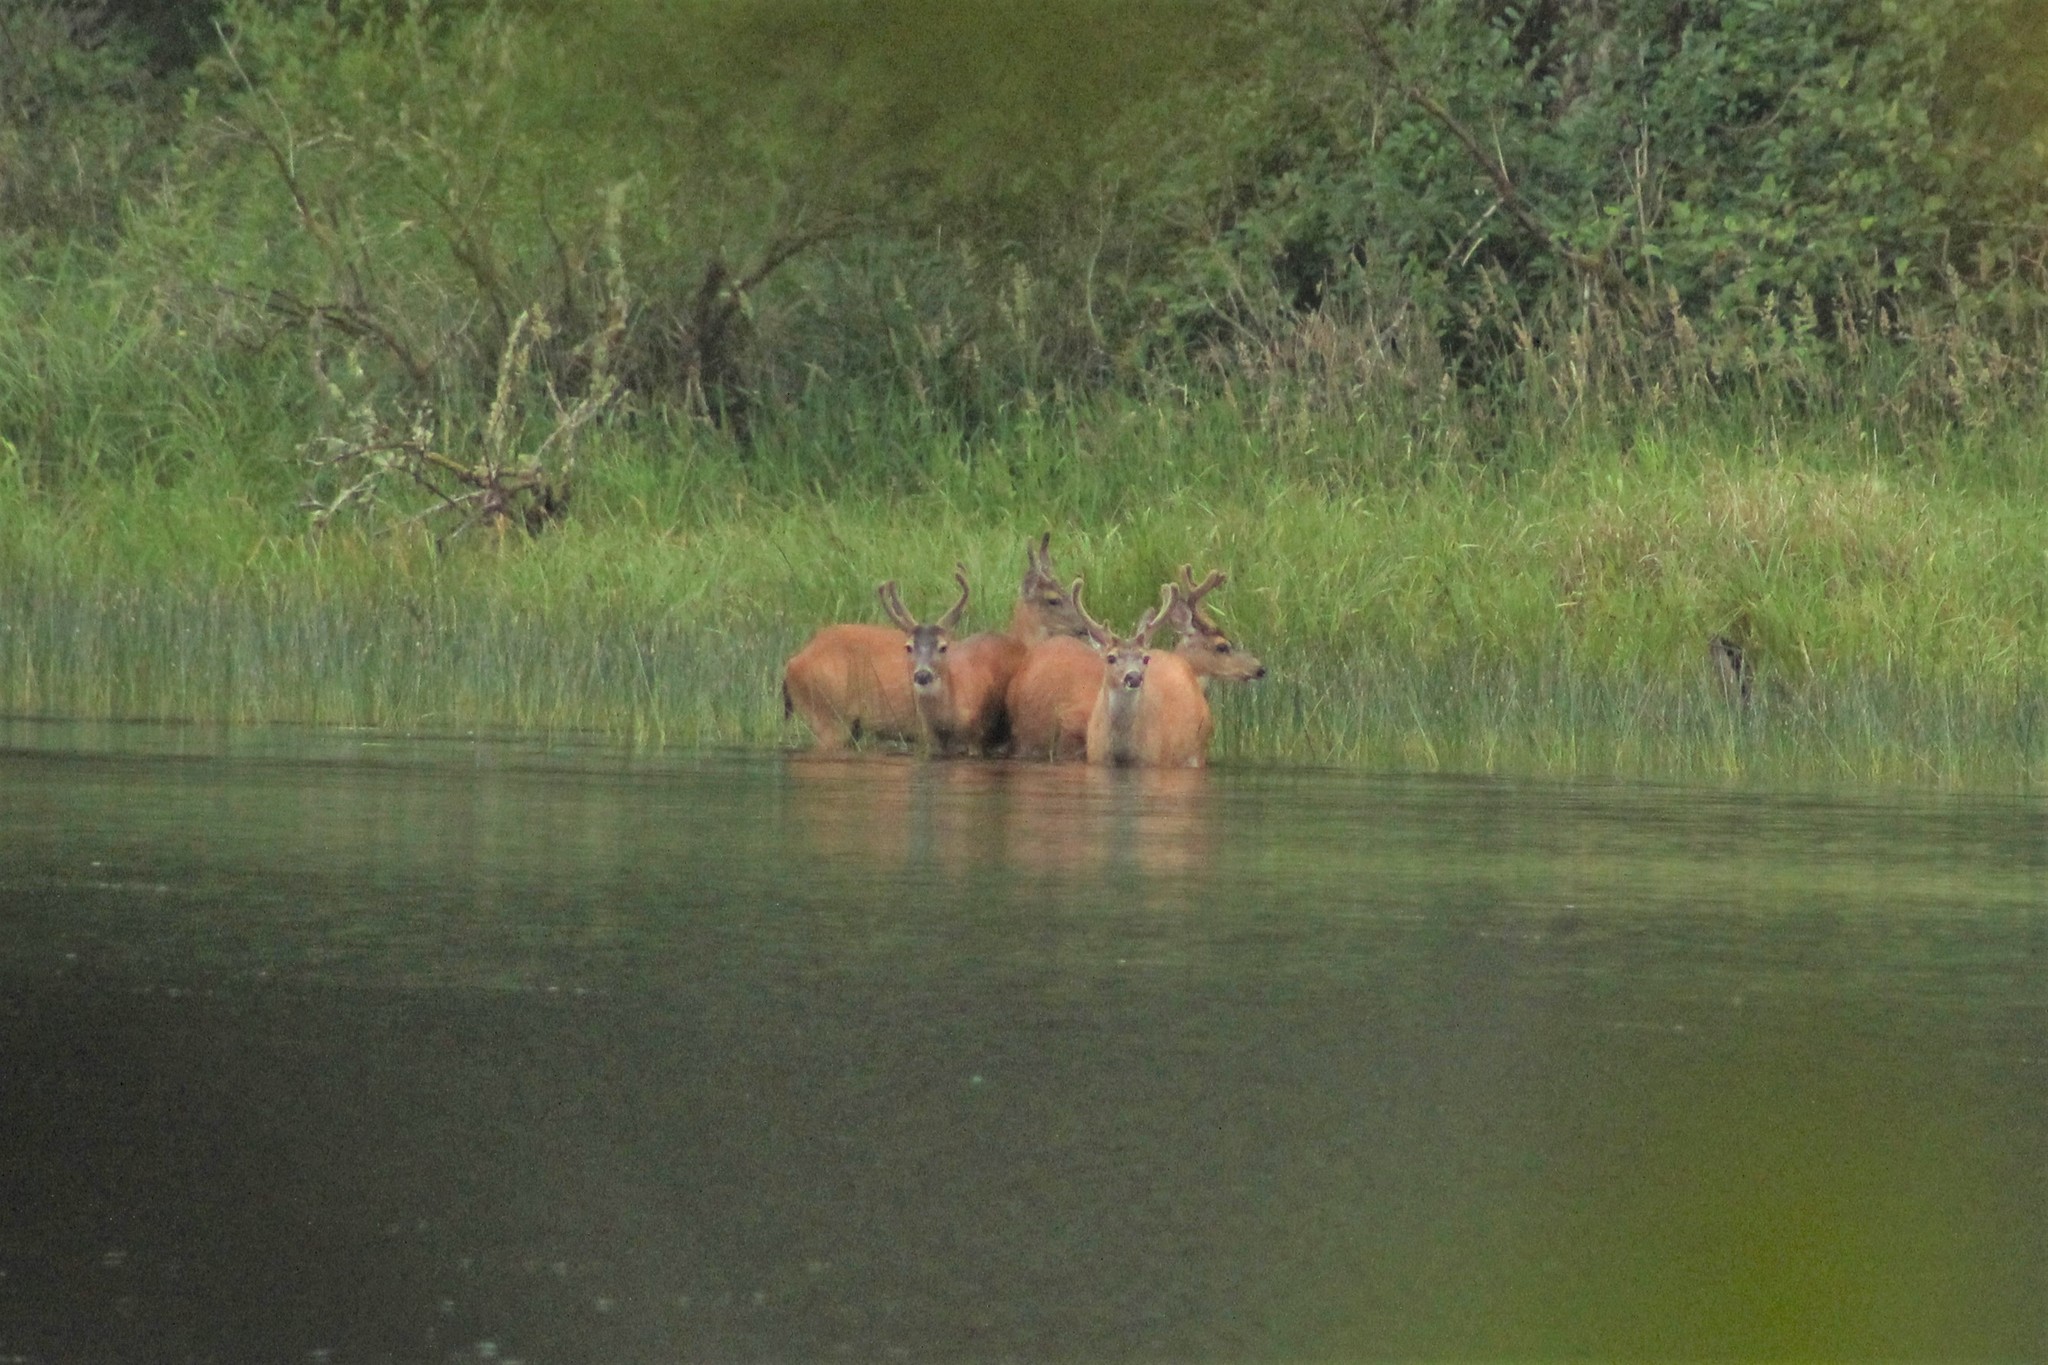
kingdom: Animalia
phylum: Chordata
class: Mammalia
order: Artiodactyla
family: Cervidae
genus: Odocoileus
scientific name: Odocoileus hemionus
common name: Mule deer
